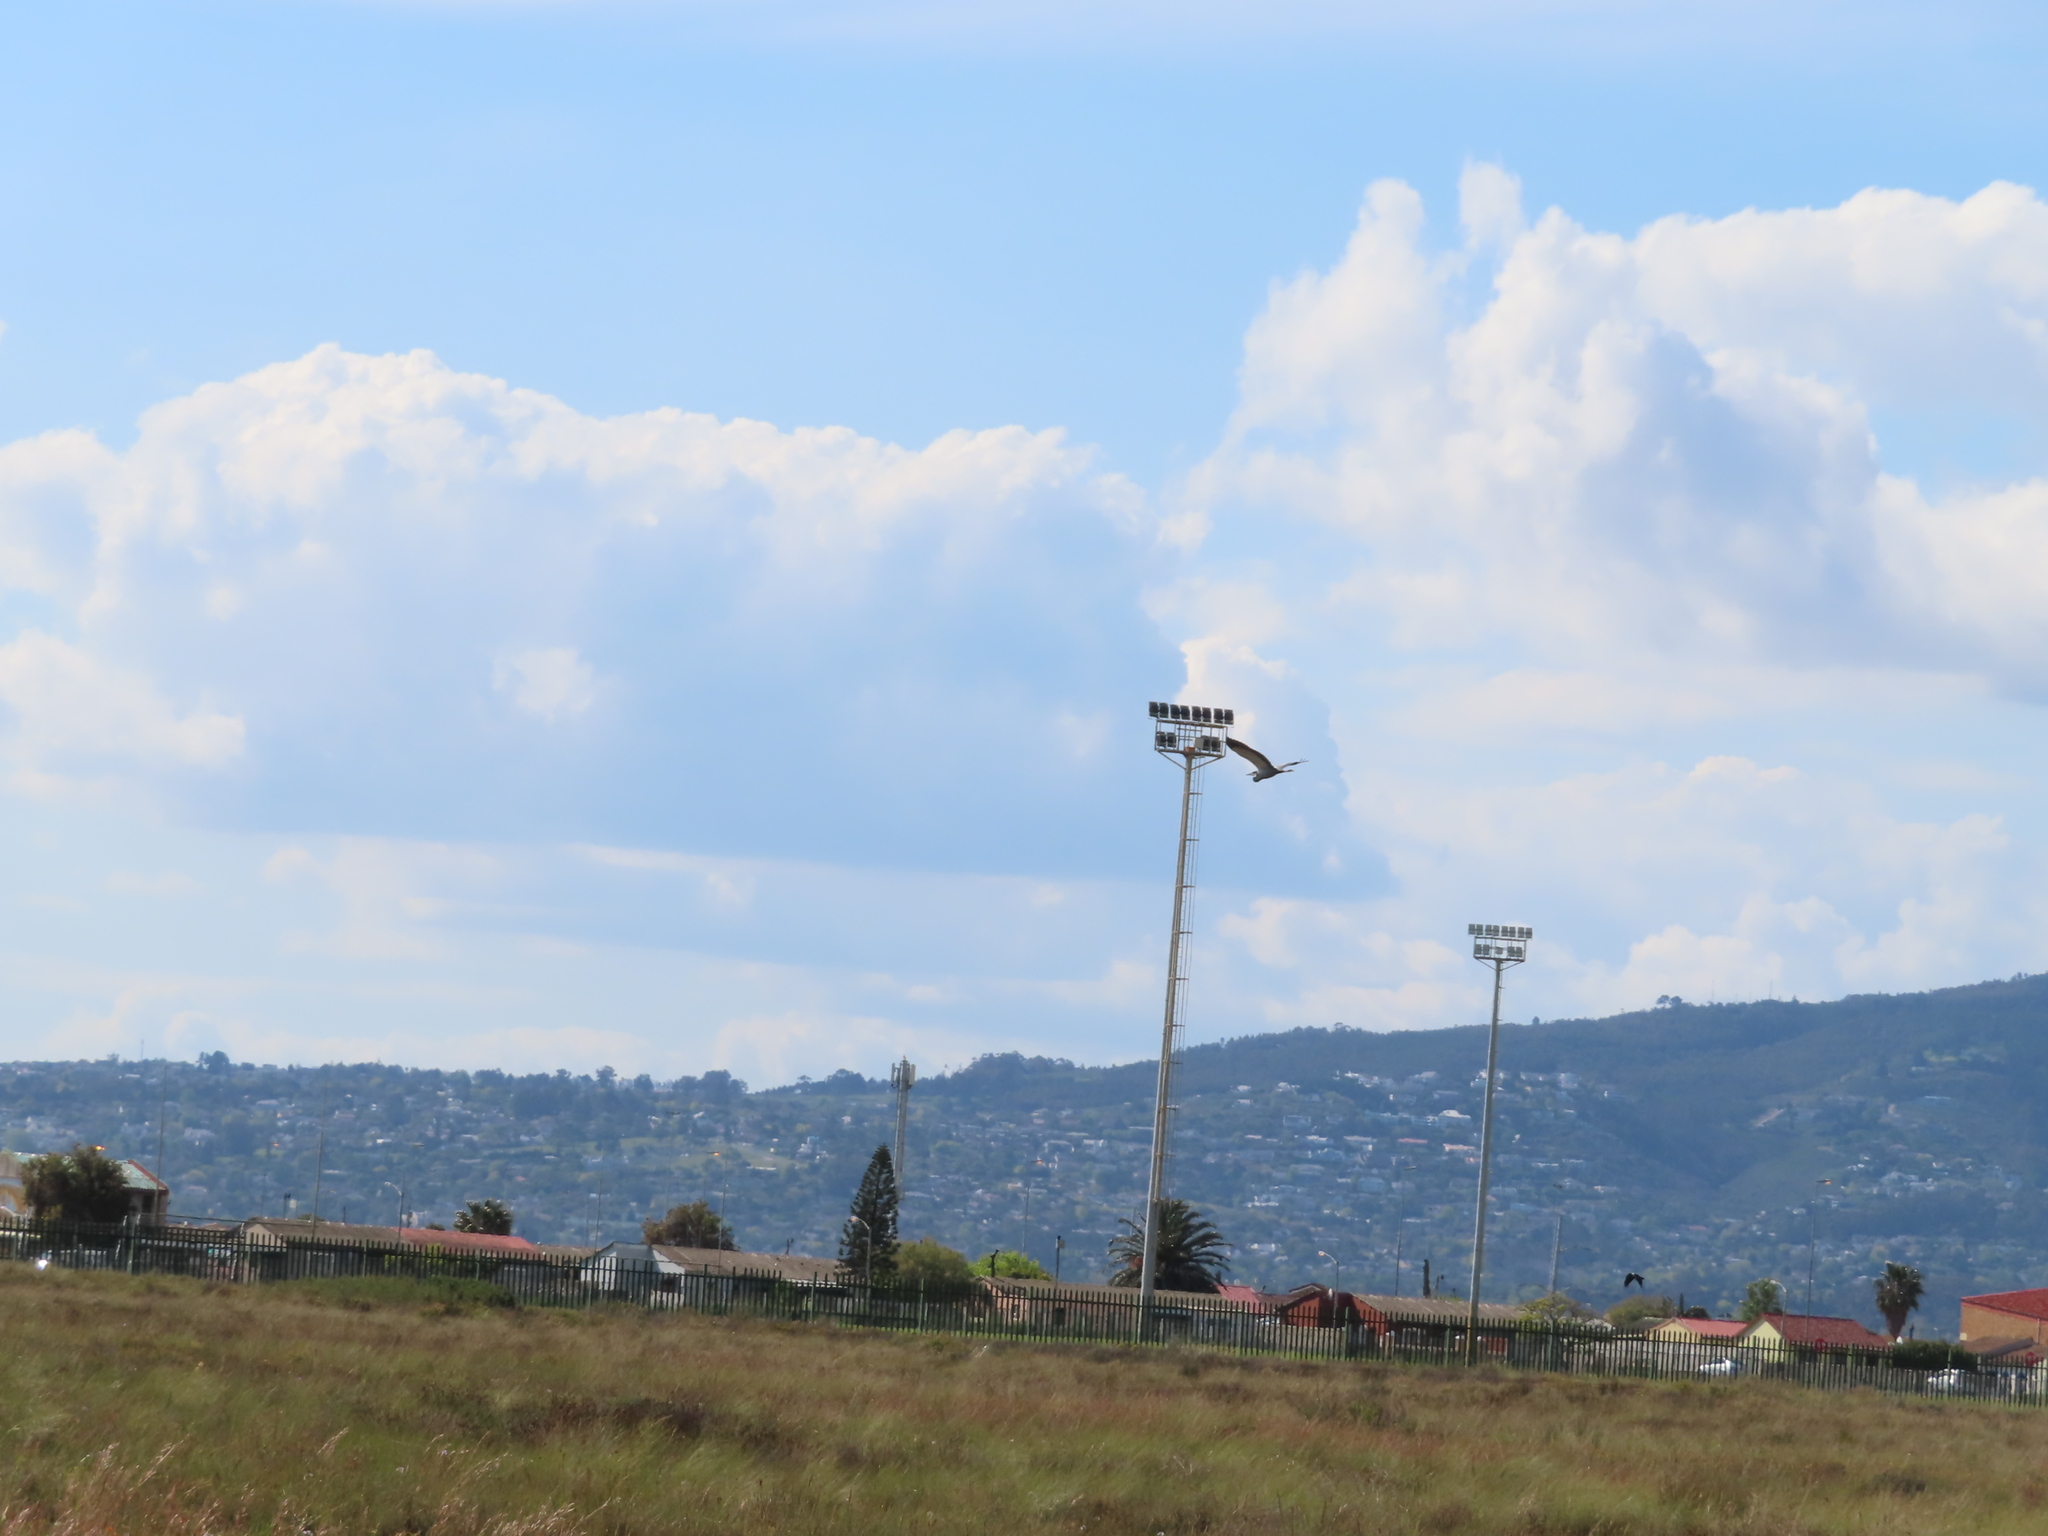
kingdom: Animalia
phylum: Chordata
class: Aves
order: Pelecaniformes
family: Ardeidae
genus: Ardea
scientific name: Ardea cinerea
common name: Grey heron
